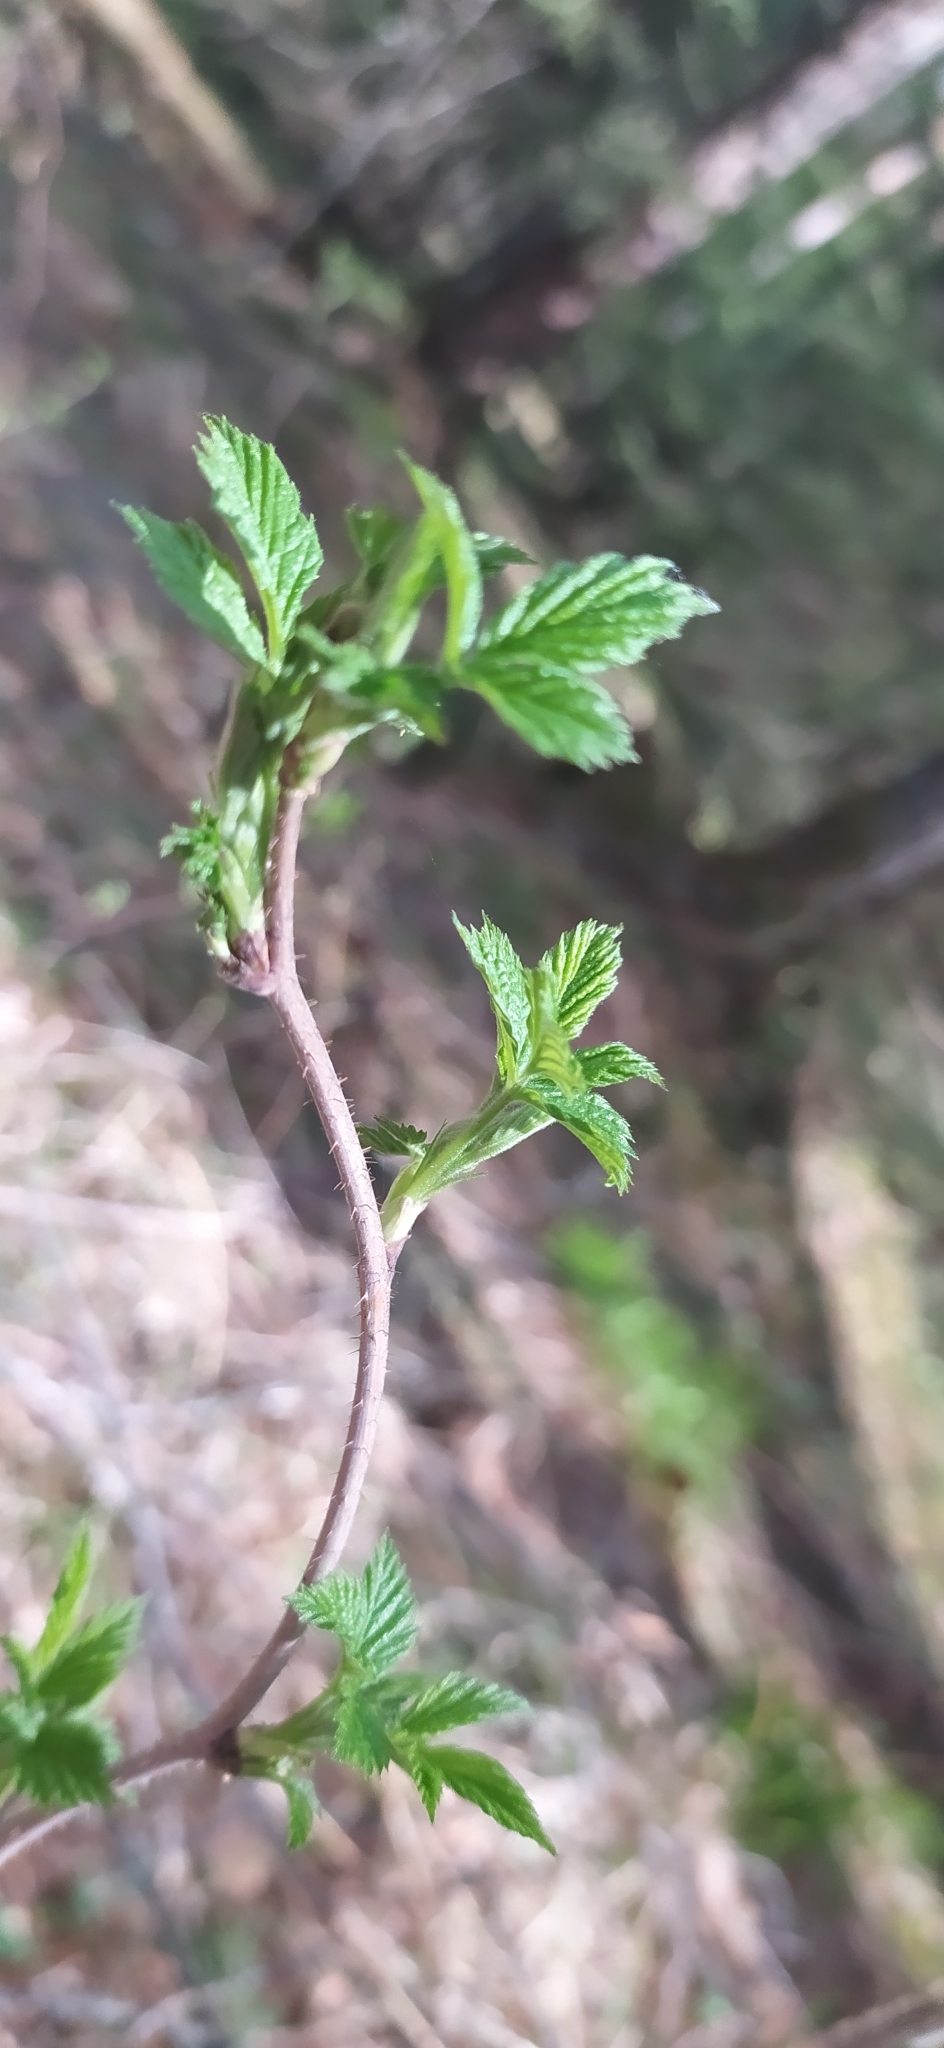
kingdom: Plantae
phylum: Tracheophyta
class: Magnoliopsida
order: Rosales
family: Rosaceae
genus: Rubus
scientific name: Rubus idaeus
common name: Raspberry
